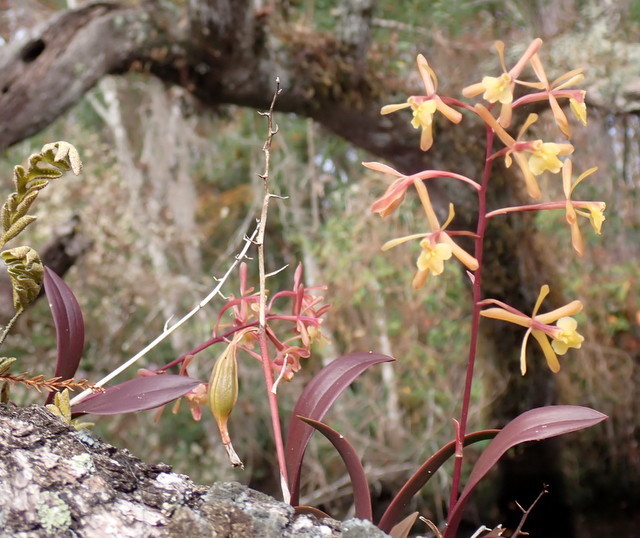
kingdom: Plantae
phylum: Tracheophyta
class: Liliopsida
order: Asparagales
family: Orchidaceae
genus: Epidendrum
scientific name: Epidendrum conopseum
